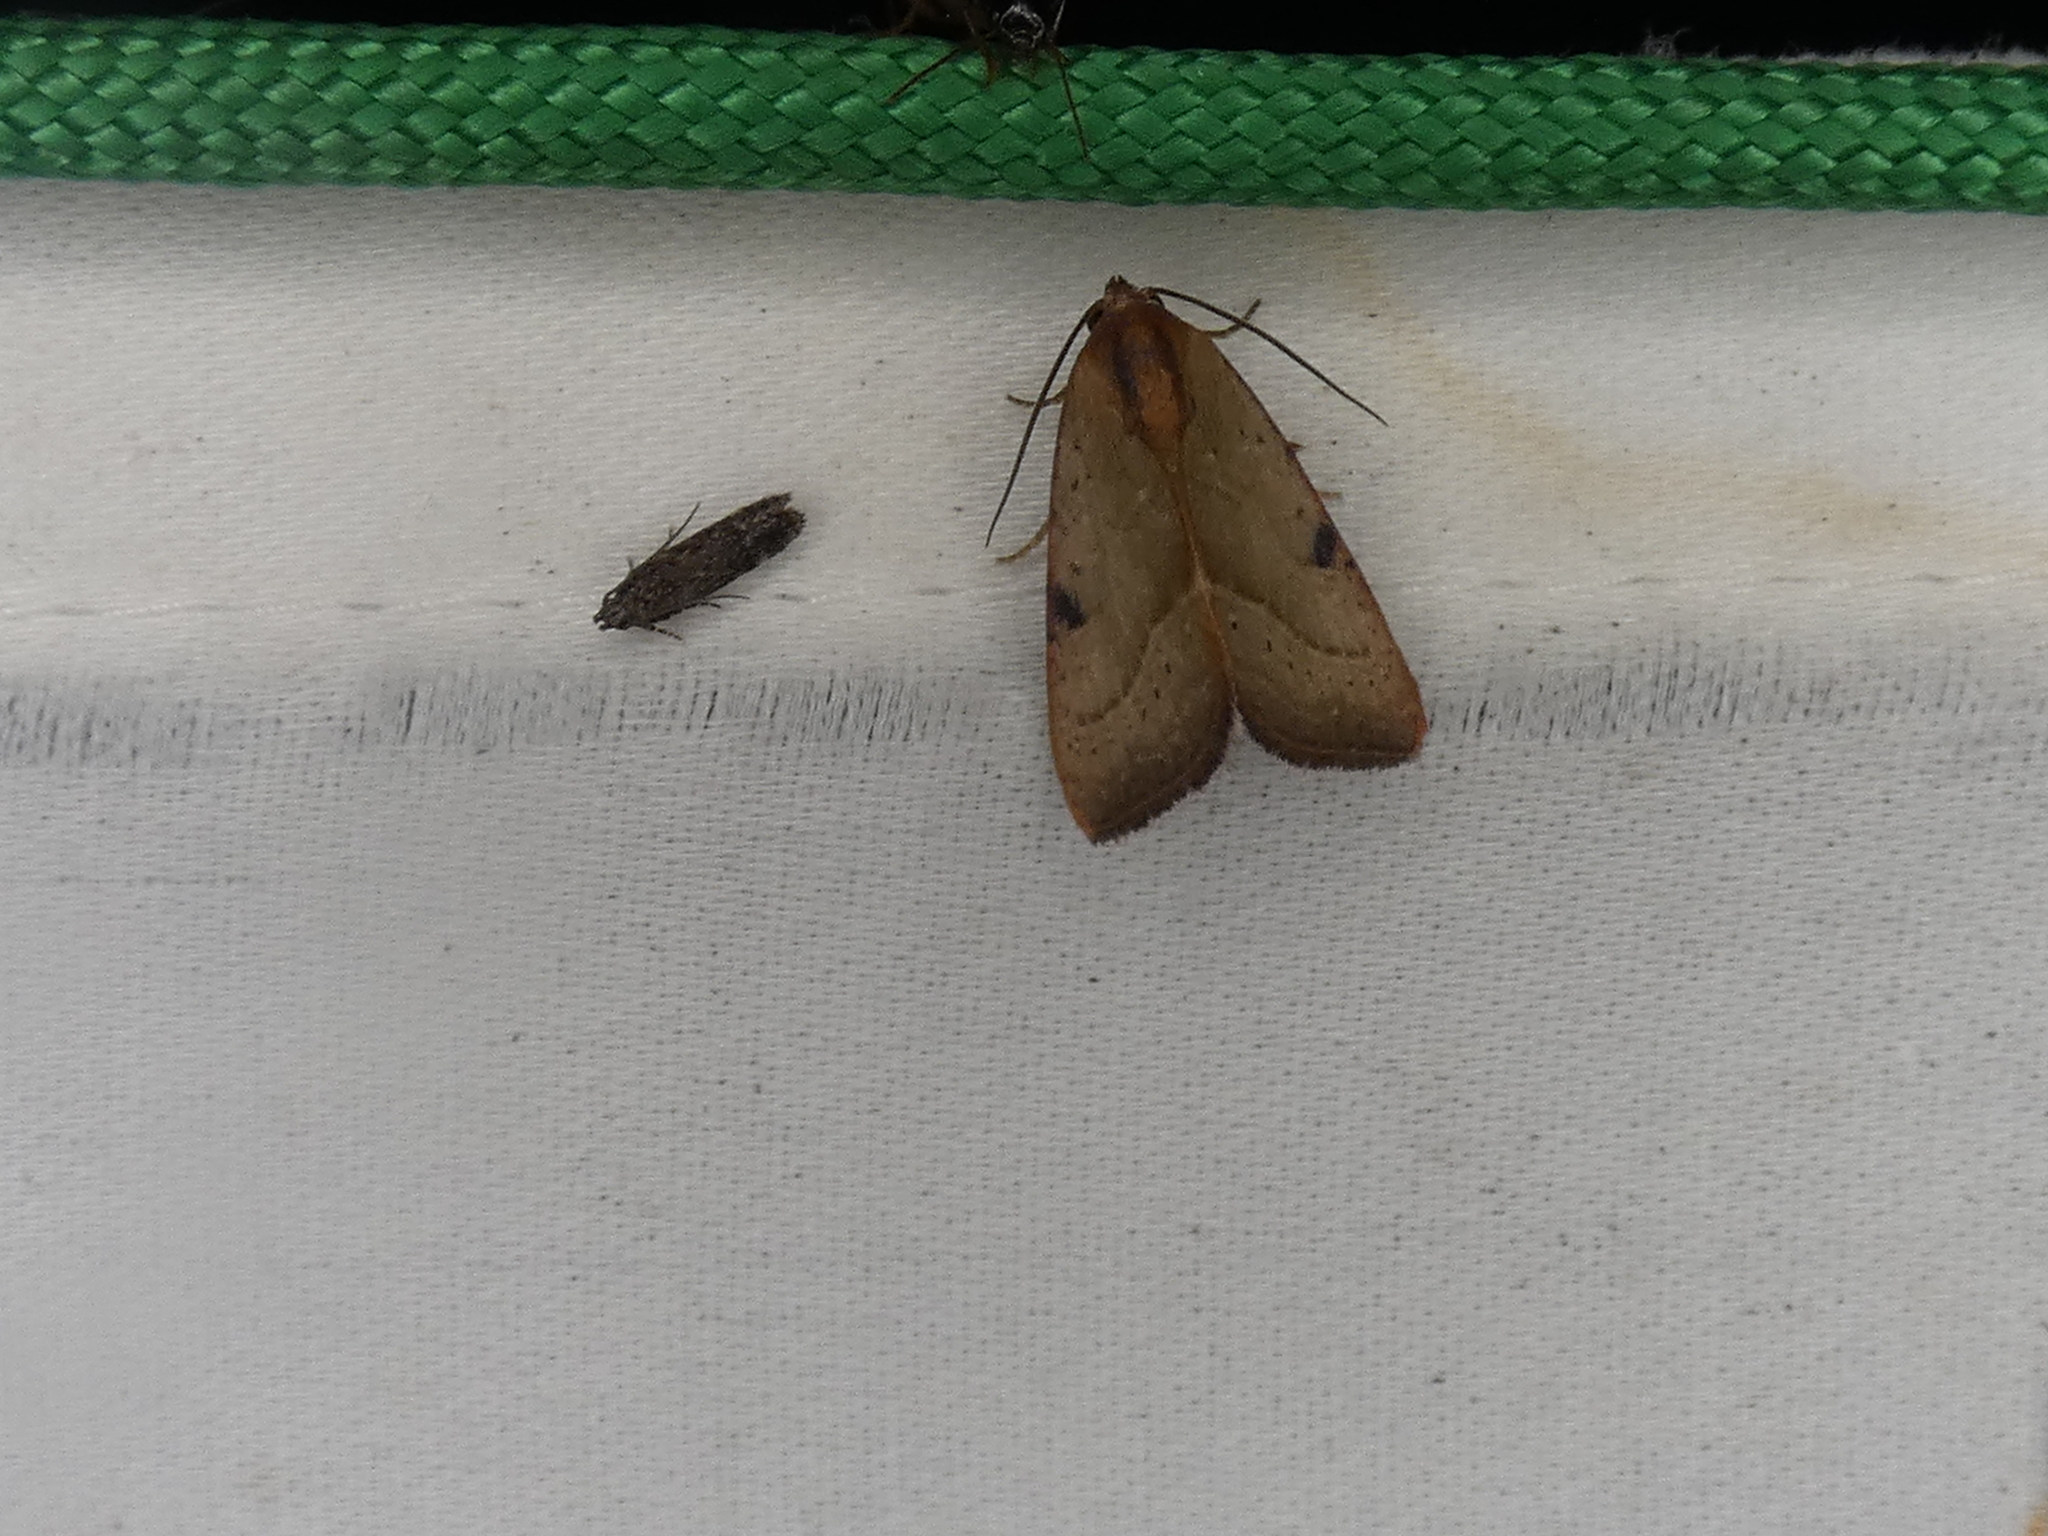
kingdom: Animalia
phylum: Arthropoda
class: Insecta
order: Lepidoptera
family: Noctuidae
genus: Galgula
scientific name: Galgula partita
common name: Wedgeling
